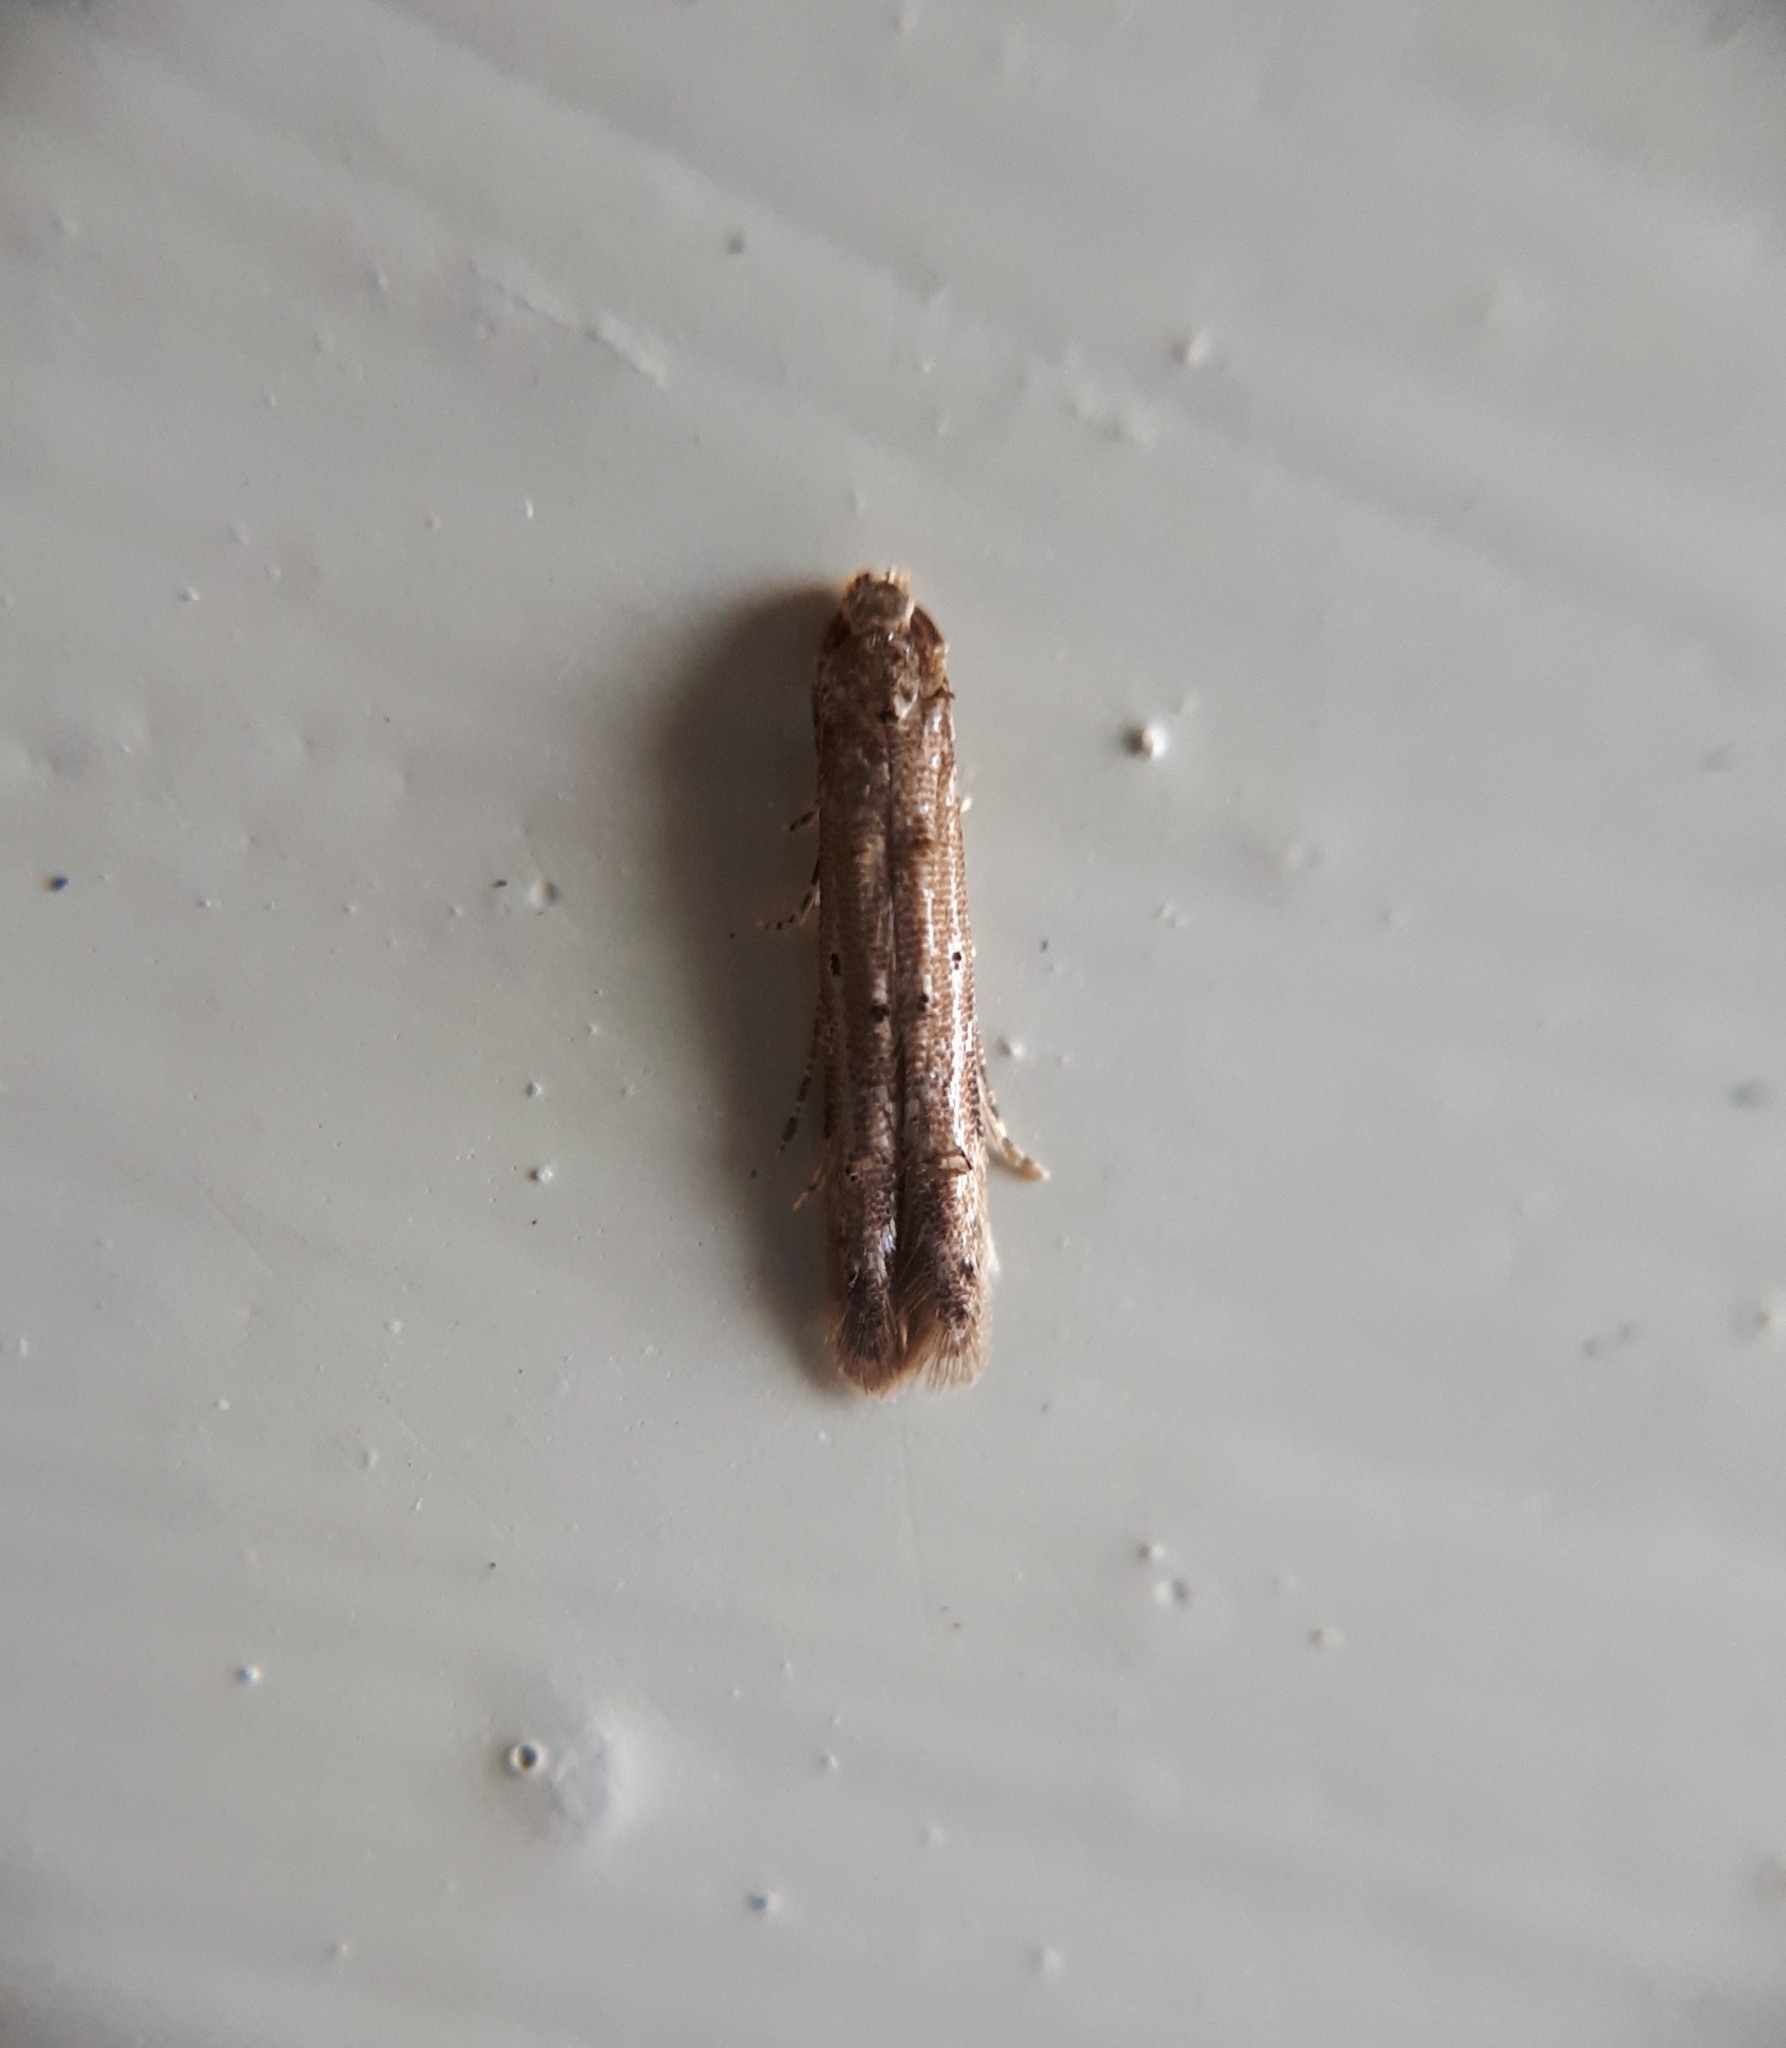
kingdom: Animalia
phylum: Arthropoda
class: Insecta
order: Lepidoptera
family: Elachistidae
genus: Microcolona
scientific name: Microcolona limodes
